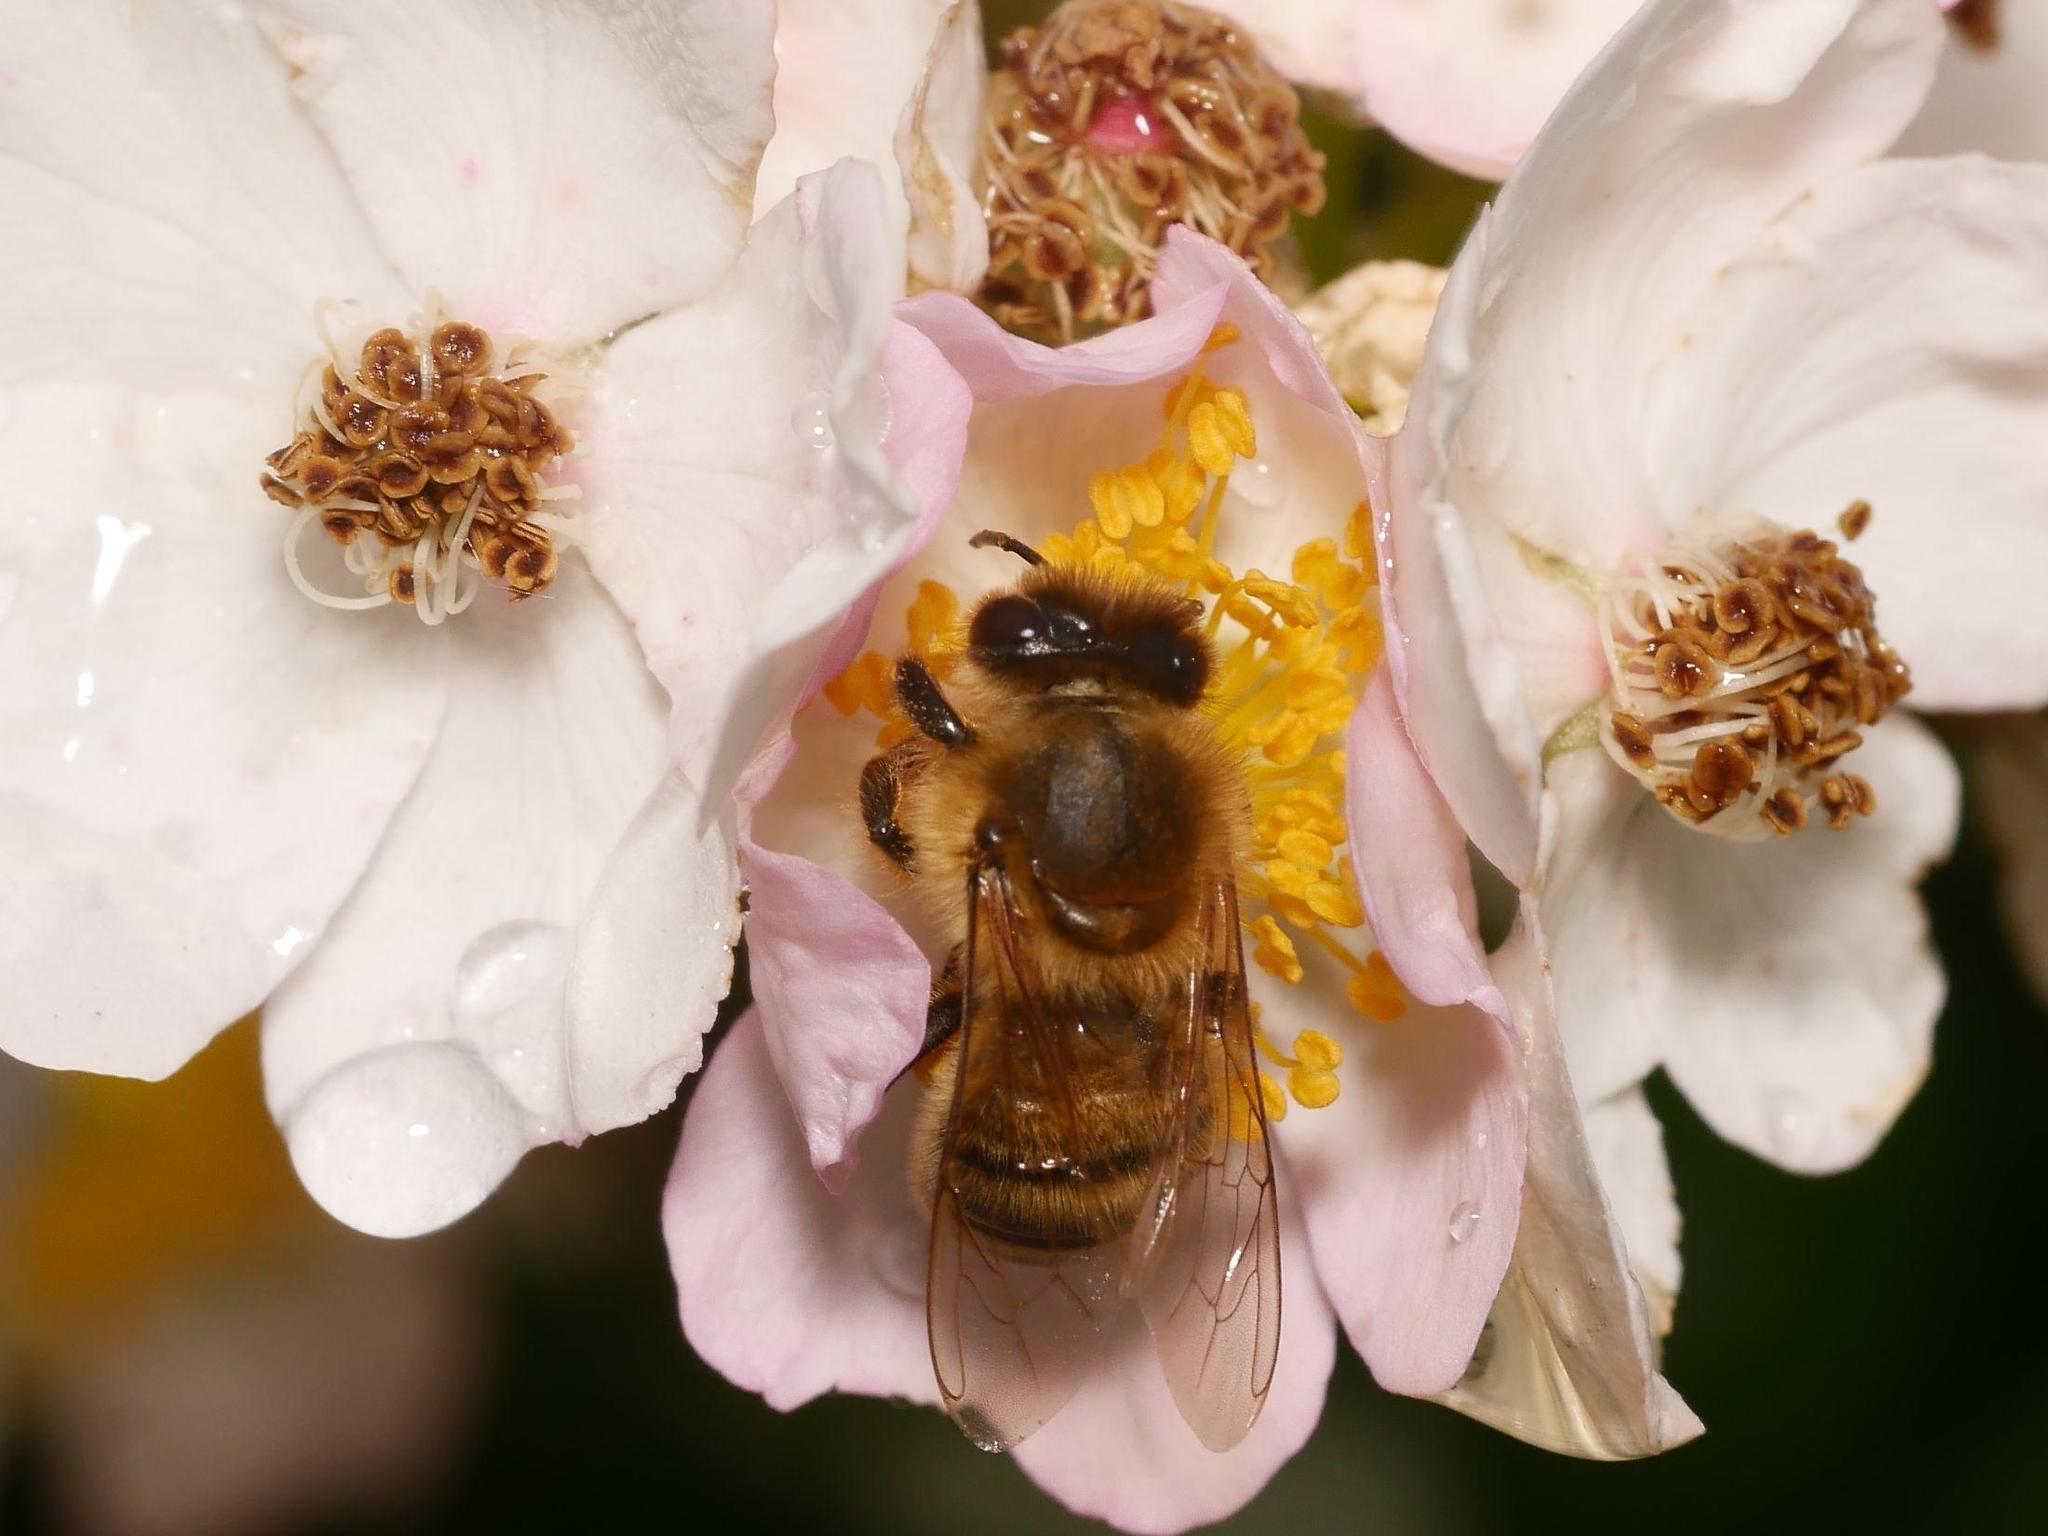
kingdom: Animalia
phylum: Arthropoda
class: Insecta
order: Hymenoptera
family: Apidae
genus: Apis
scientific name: Apis mellifera
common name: Honey bee
